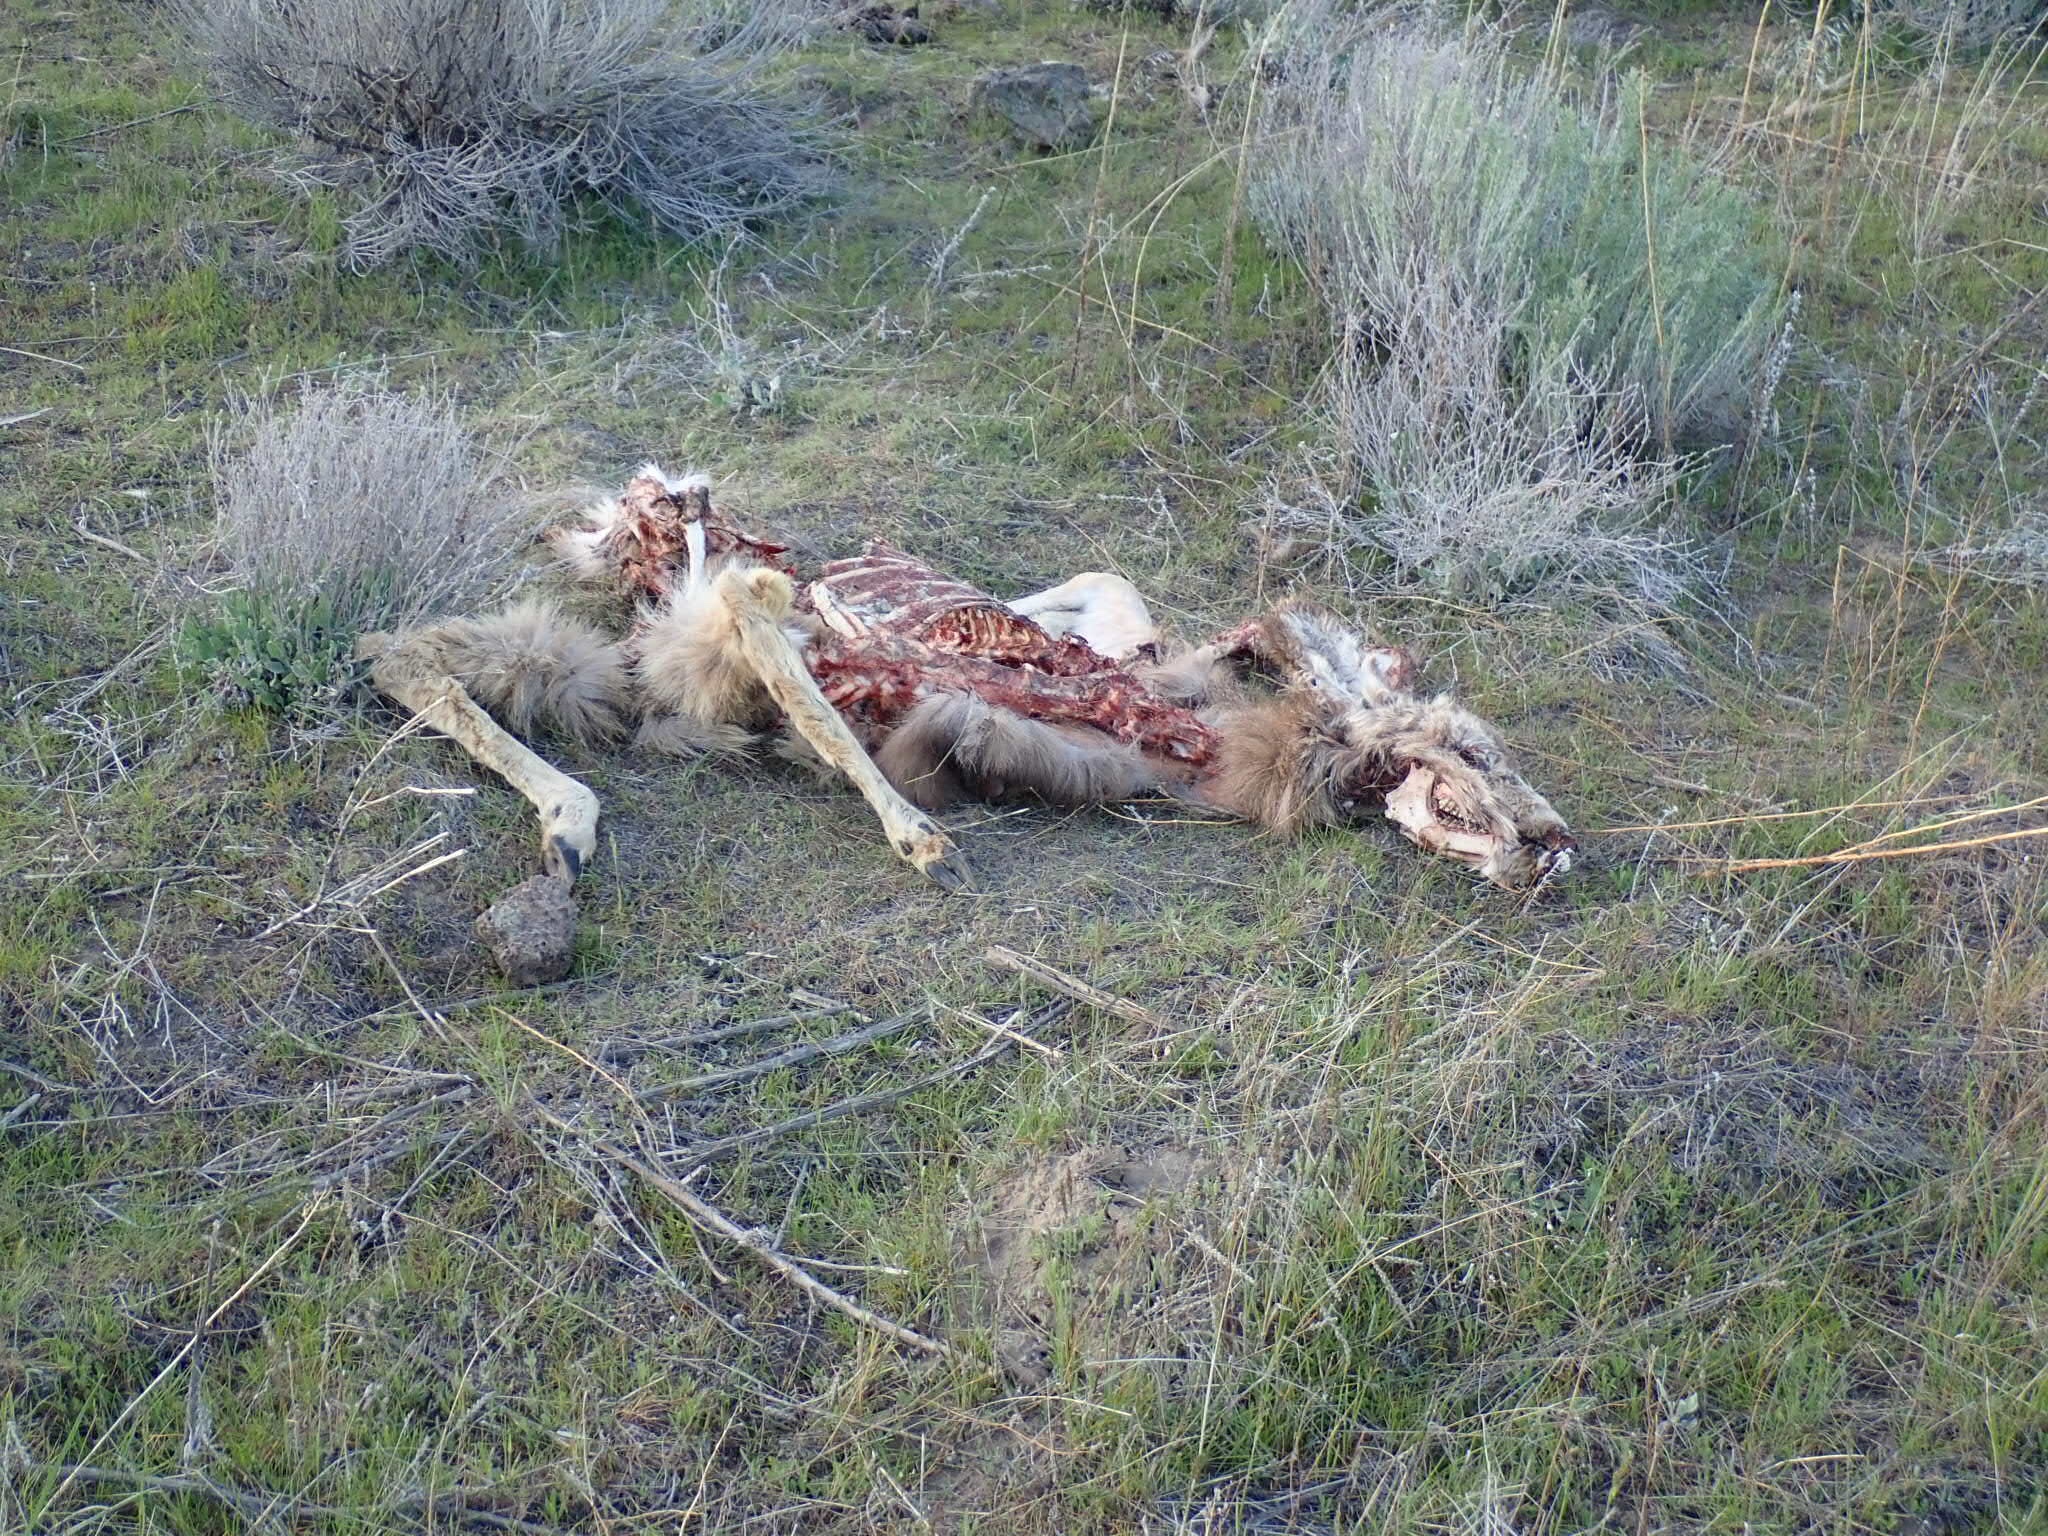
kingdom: Animalia
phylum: Chordata
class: Mammalia
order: Artiodactyla
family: Cervidae
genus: Odocoileus
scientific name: Odocoileus hemionus
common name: Mule deer
